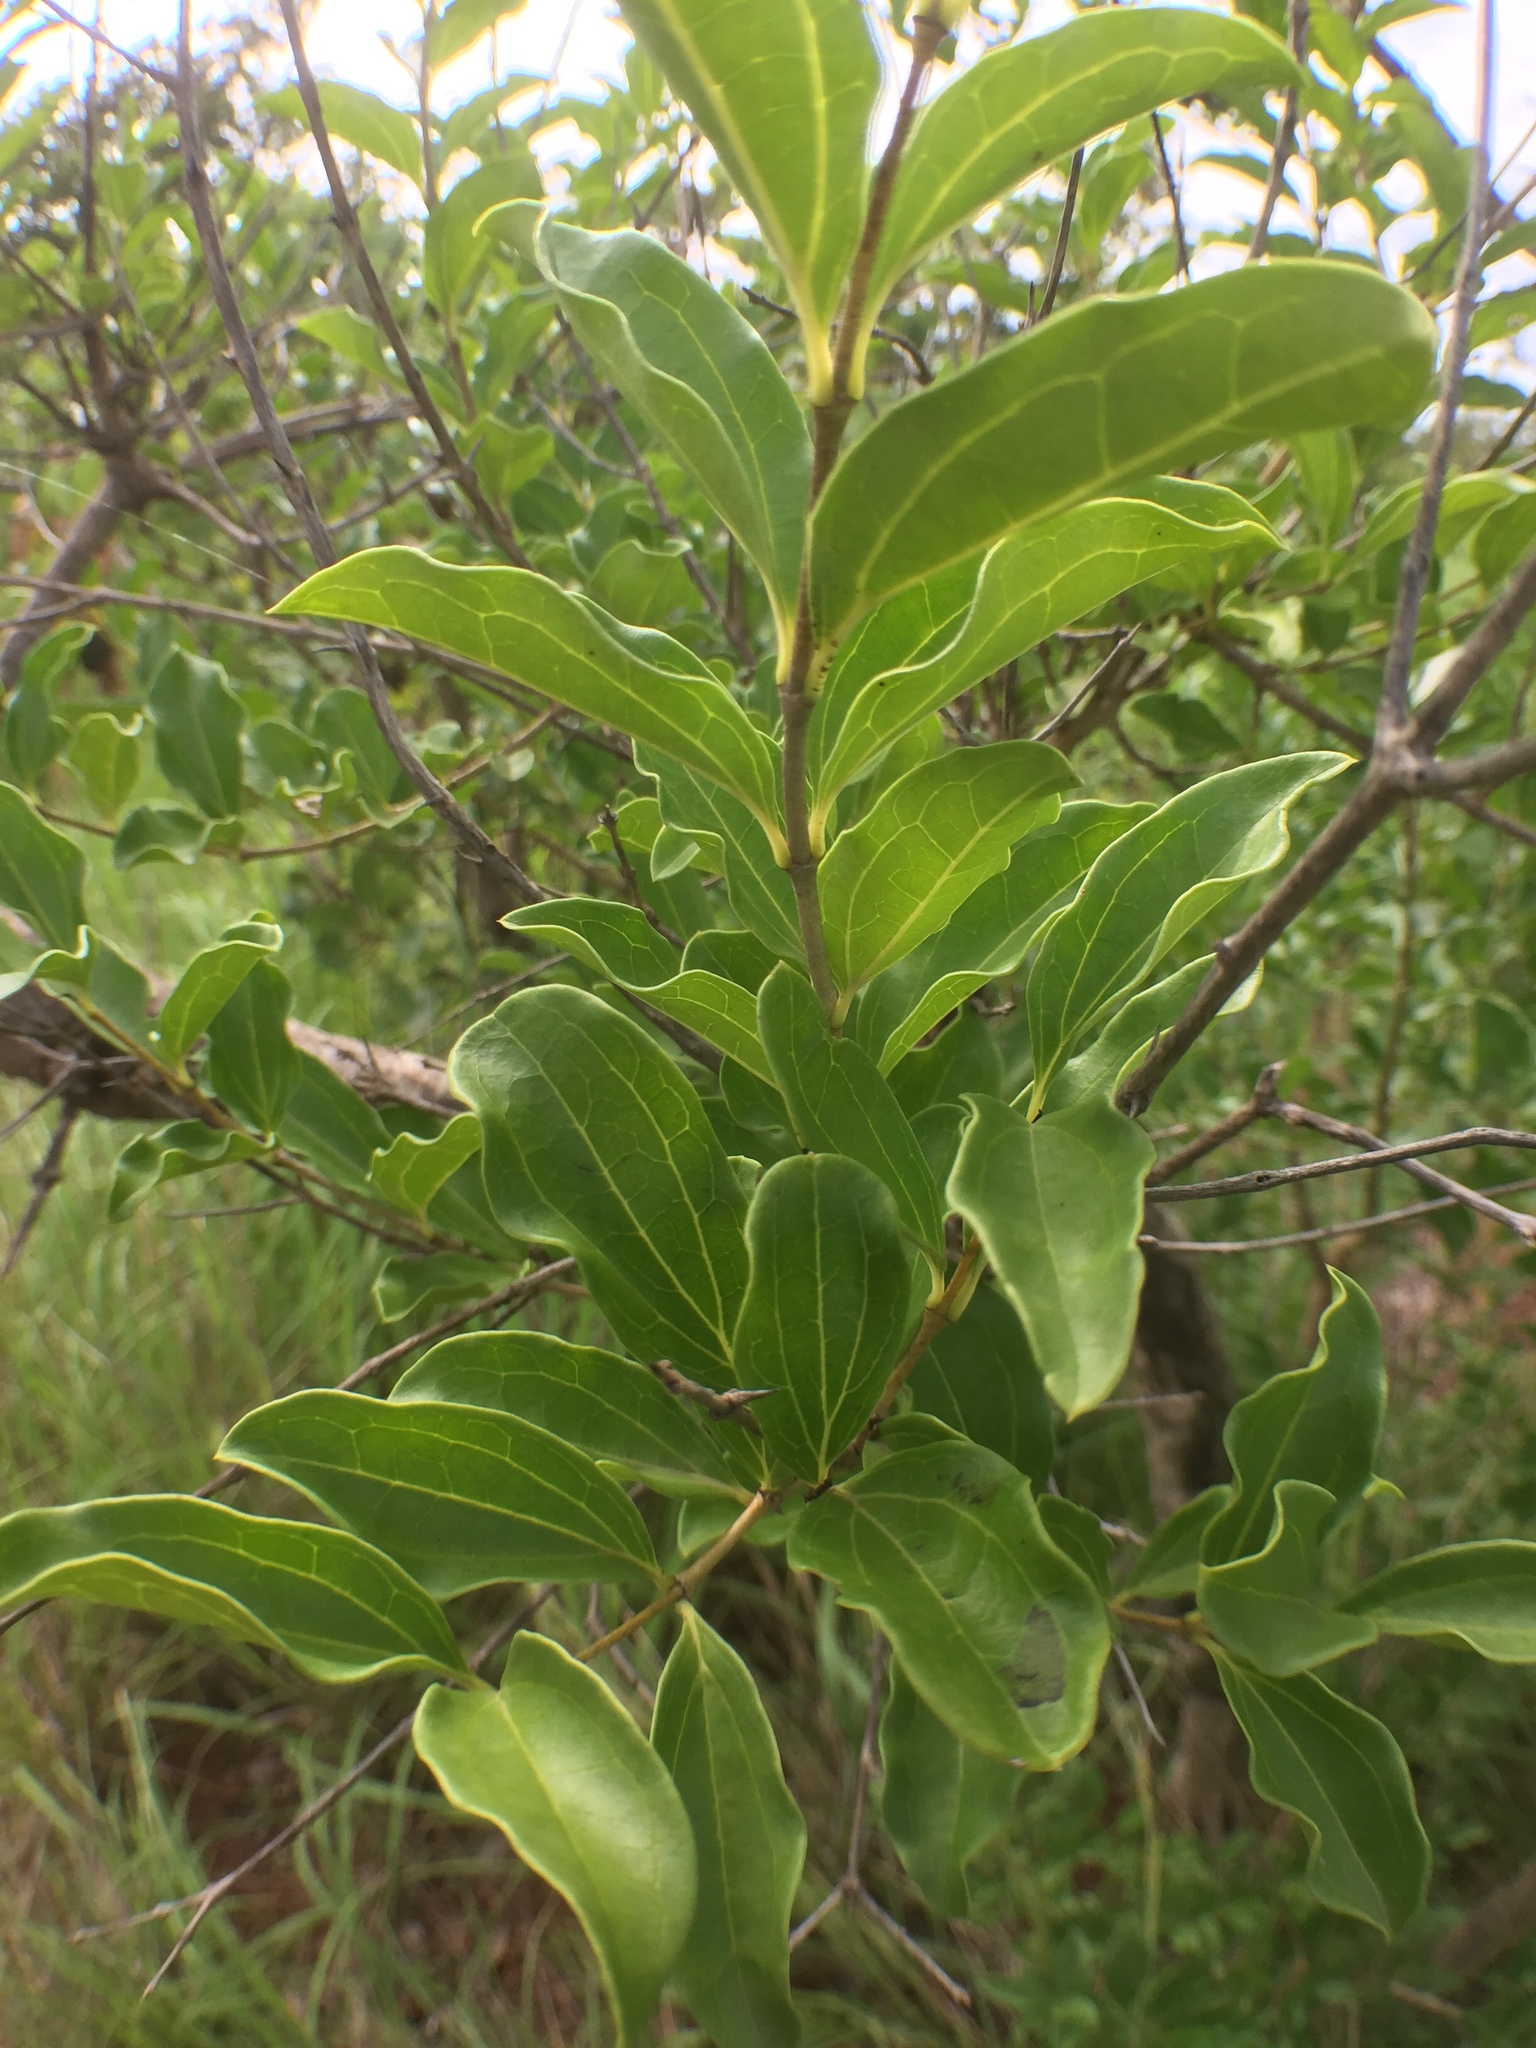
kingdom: Plantae
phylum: Tracheophyta
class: Magnoliopsida
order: Gentianales
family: Loganiaceae
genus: Strychnos
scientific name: Strychnos spinosa
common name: Natal orange
